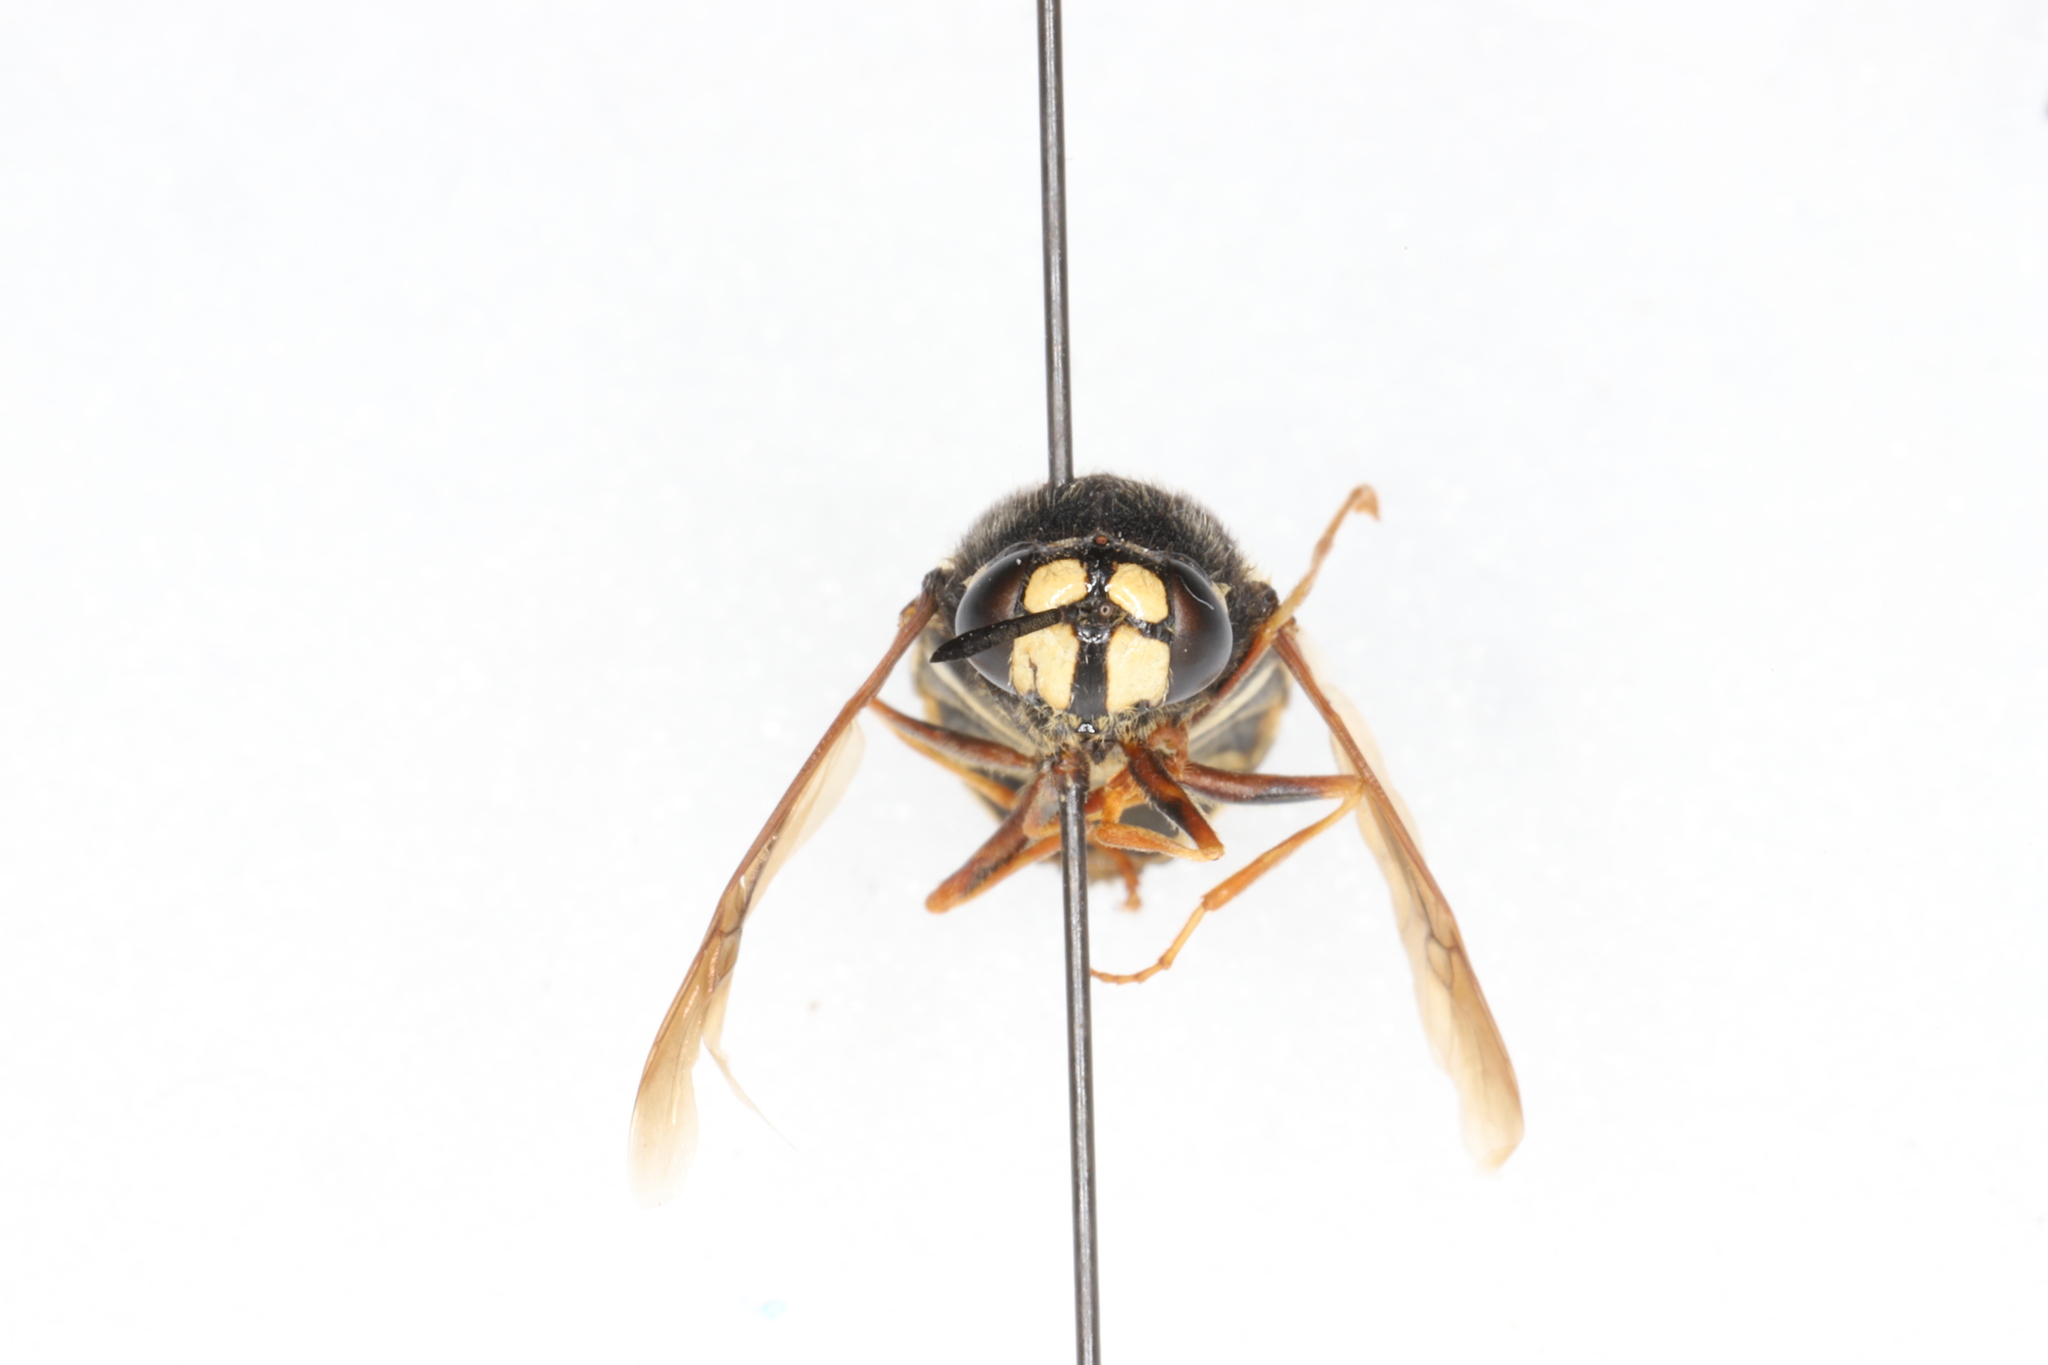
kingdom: Animalia
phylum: Arthropoda
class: Insecta
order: Diptera
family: Stratiomyidae
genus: Stratiomys
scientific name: Stratiomys badia
